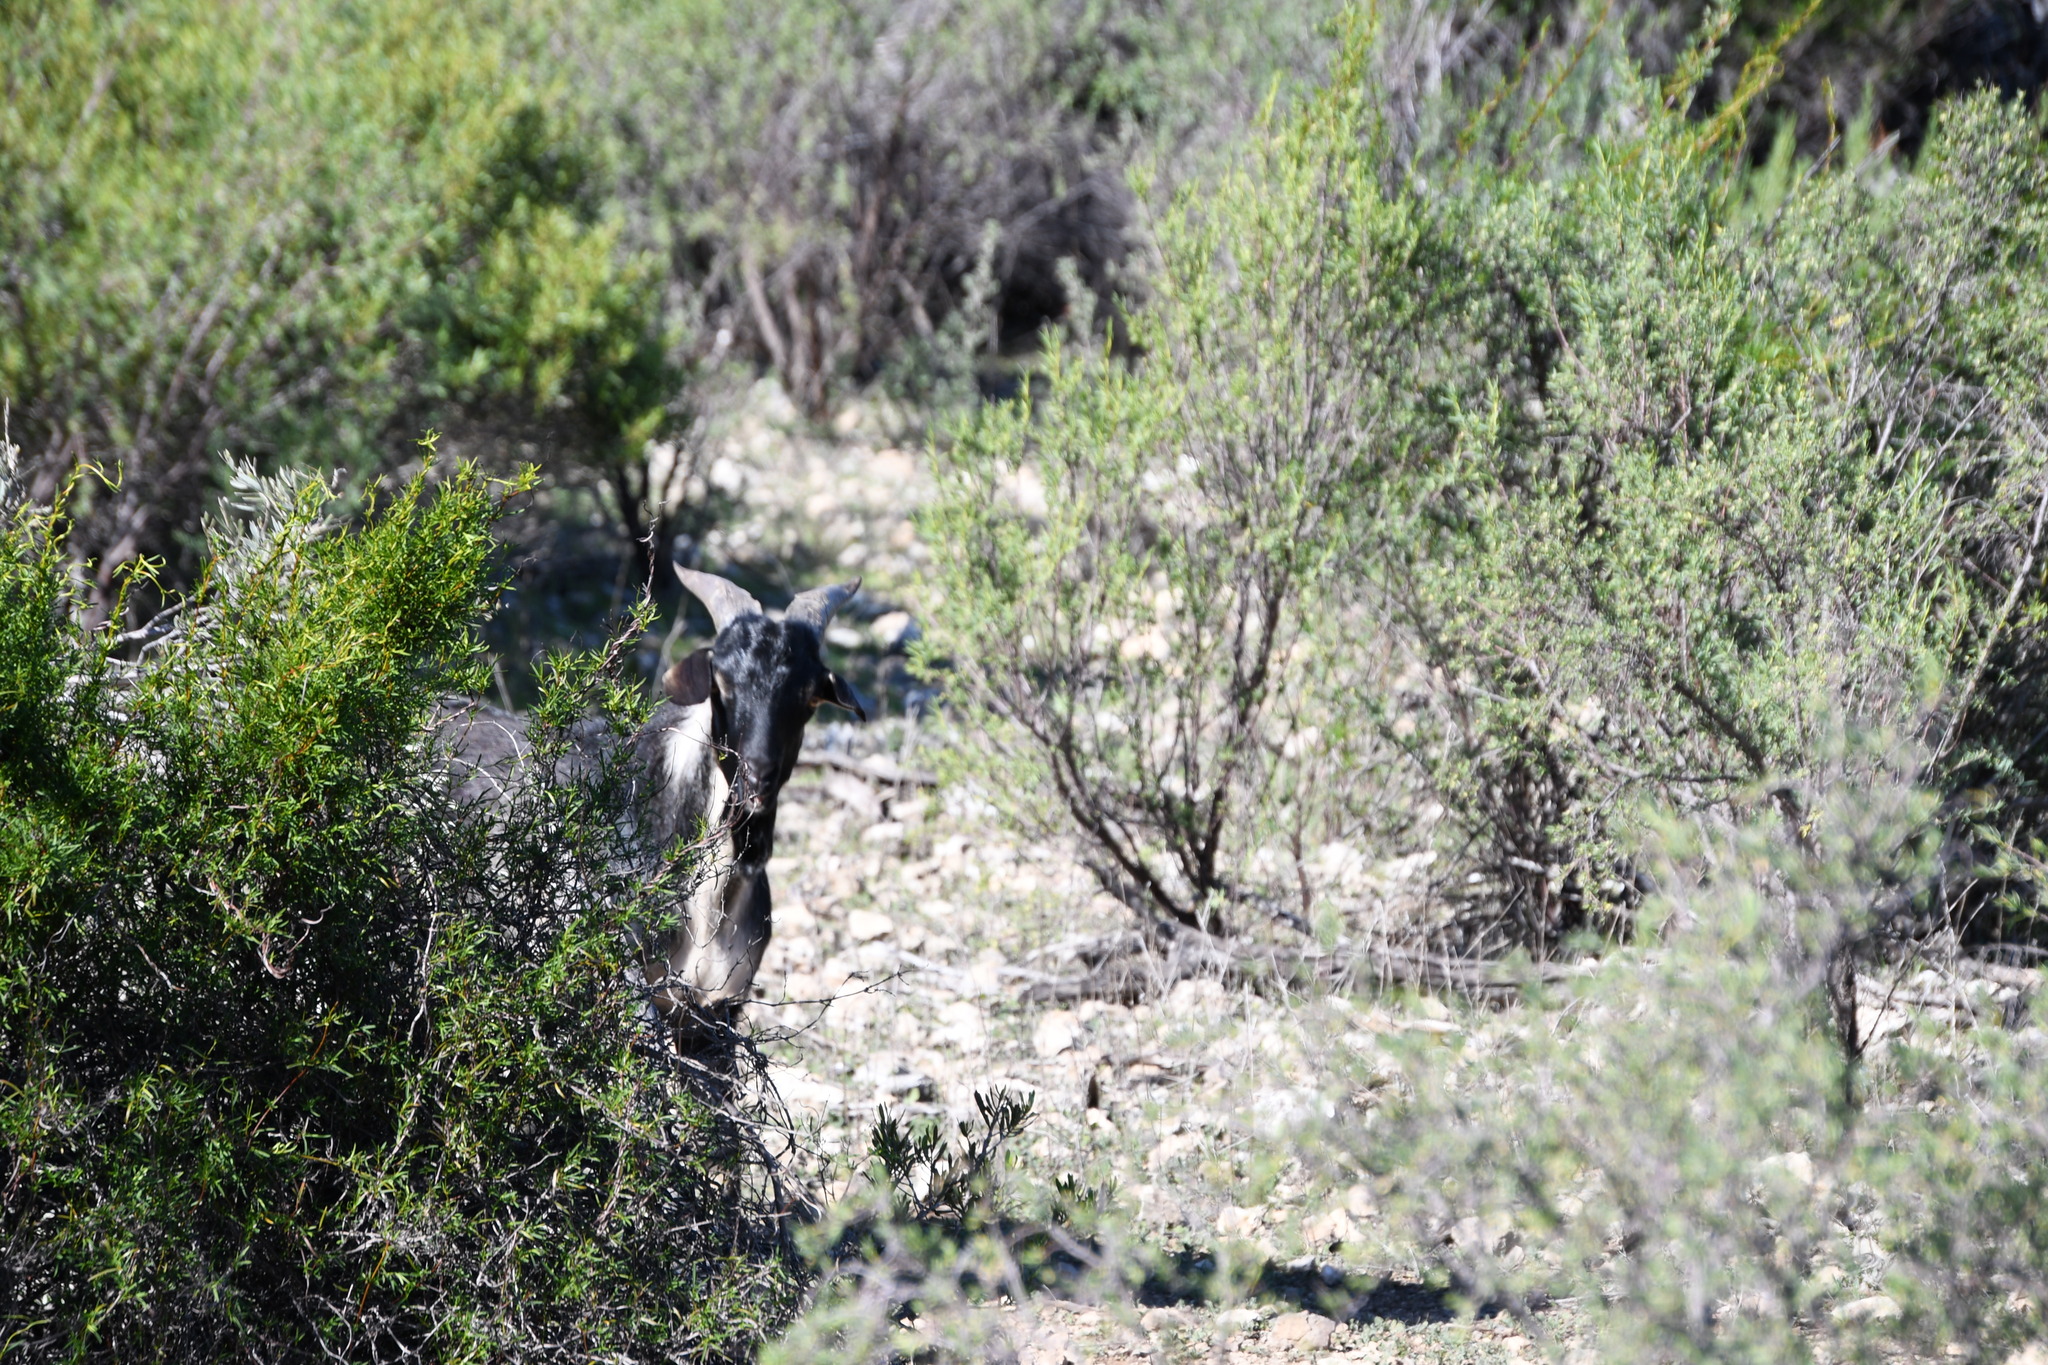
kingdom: Animalia
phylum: Chordata
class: Mammalia
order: Artiodactyla
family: Bovidae
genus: Capra
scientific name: Capra hircus
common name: Domestic goat
